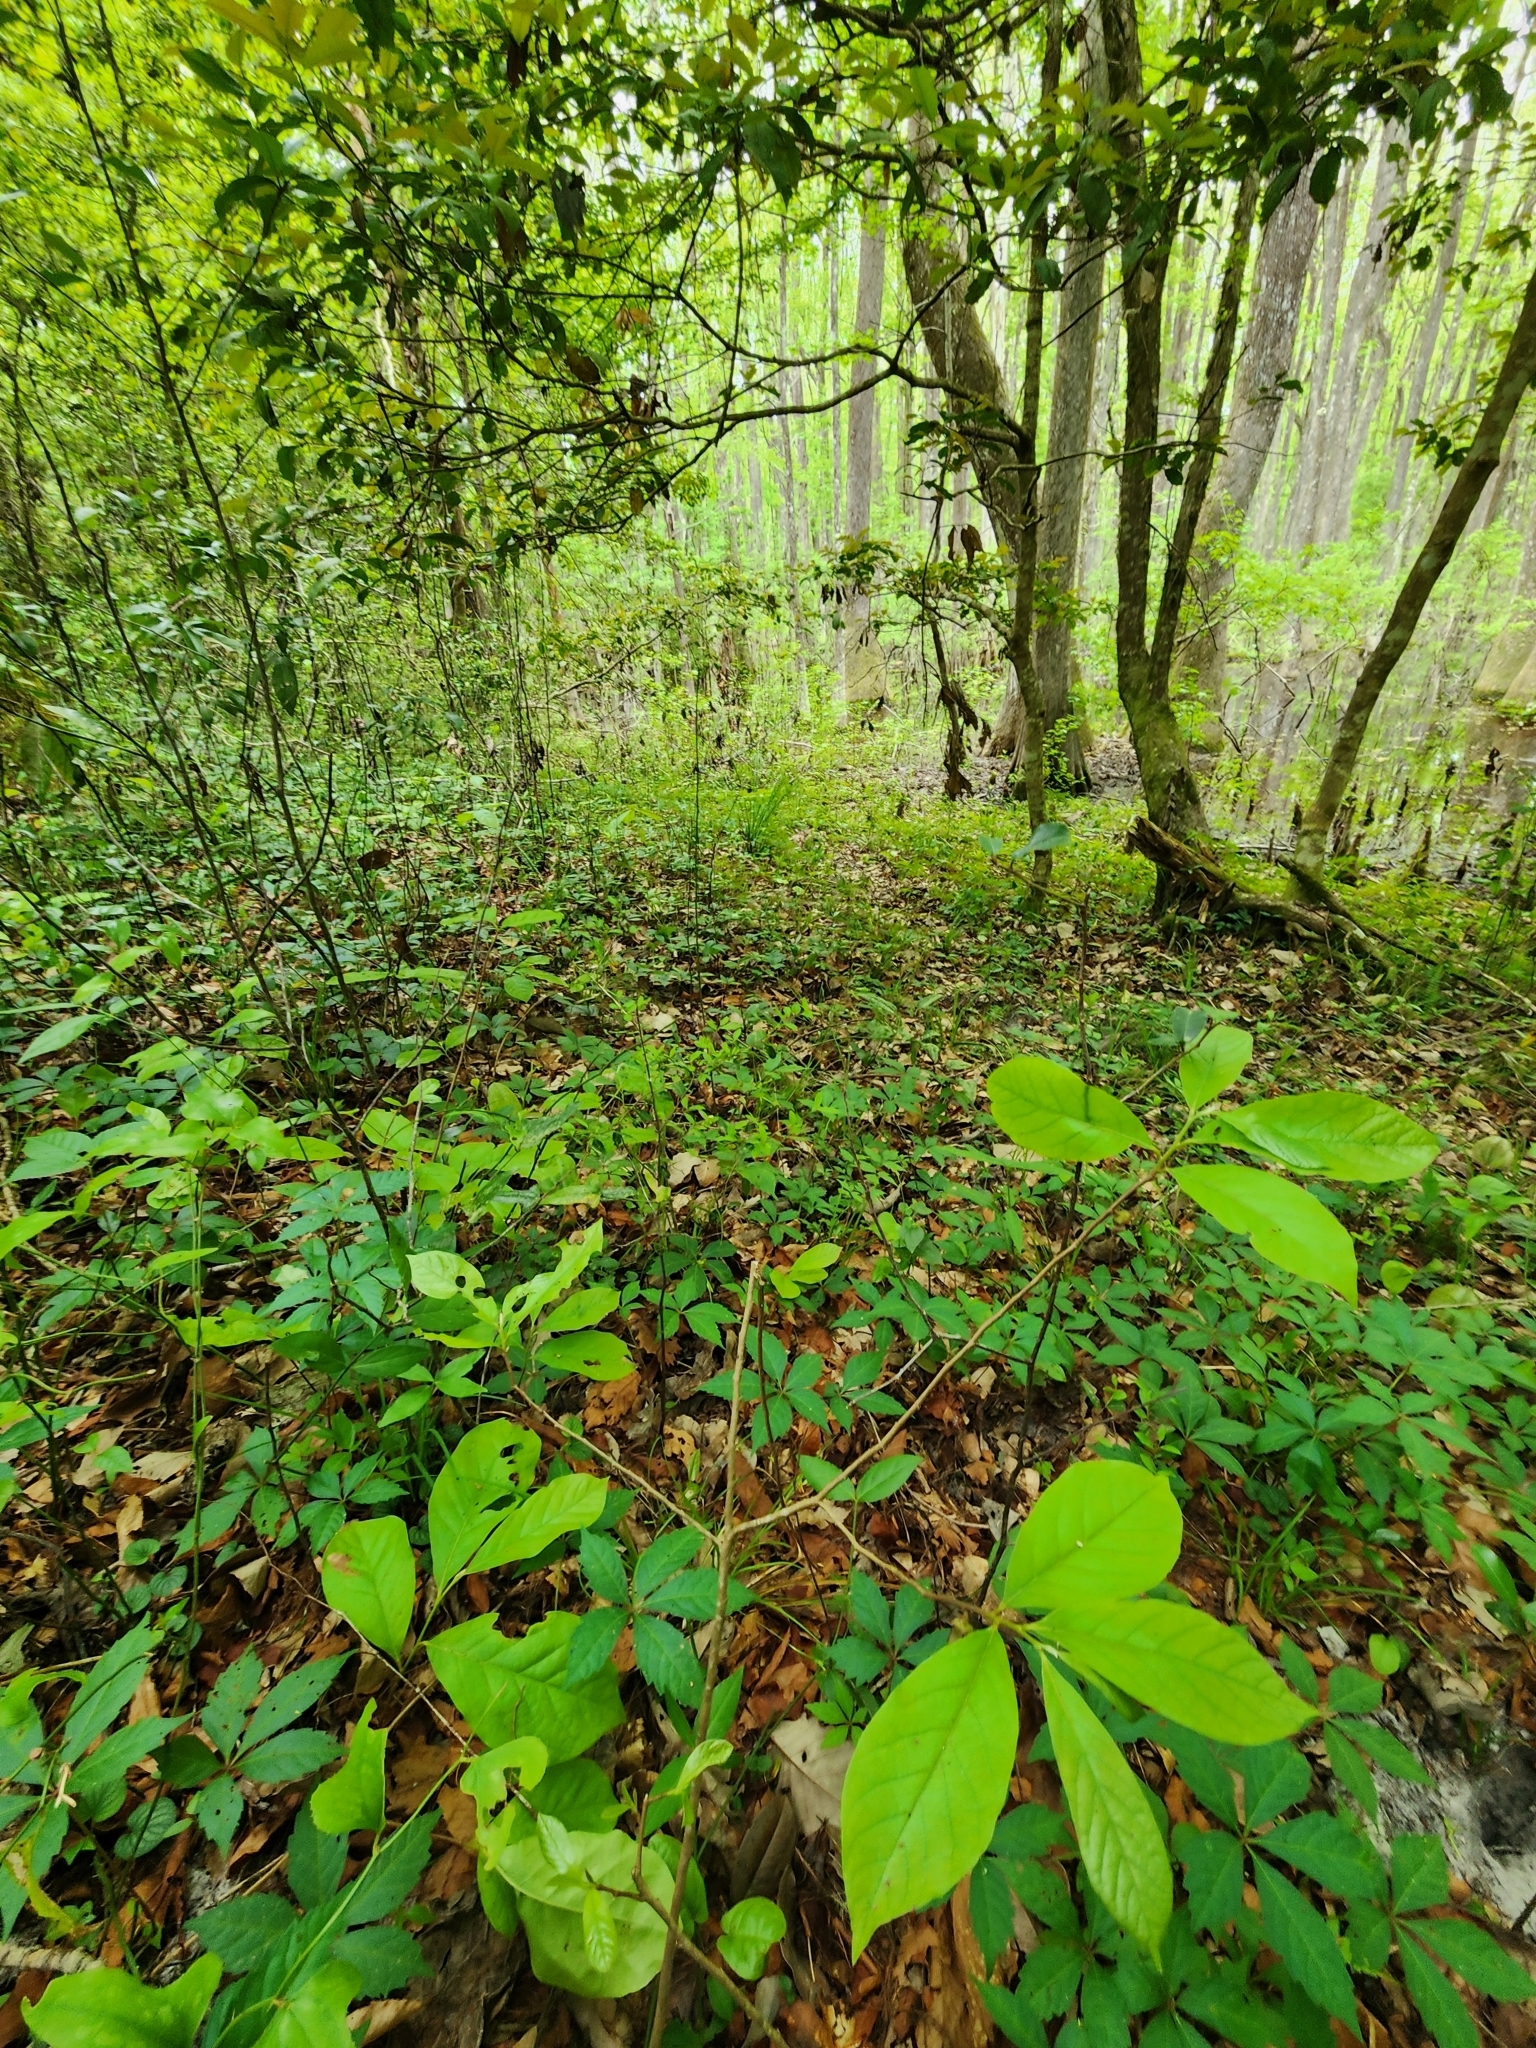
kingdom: Plantae
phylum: Tracheophyta
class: Magnoliopsida
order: Magnoliales
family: Annonaceae
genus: Asimina
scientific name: Asimina parviflora
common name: Dwarf pawpaw
